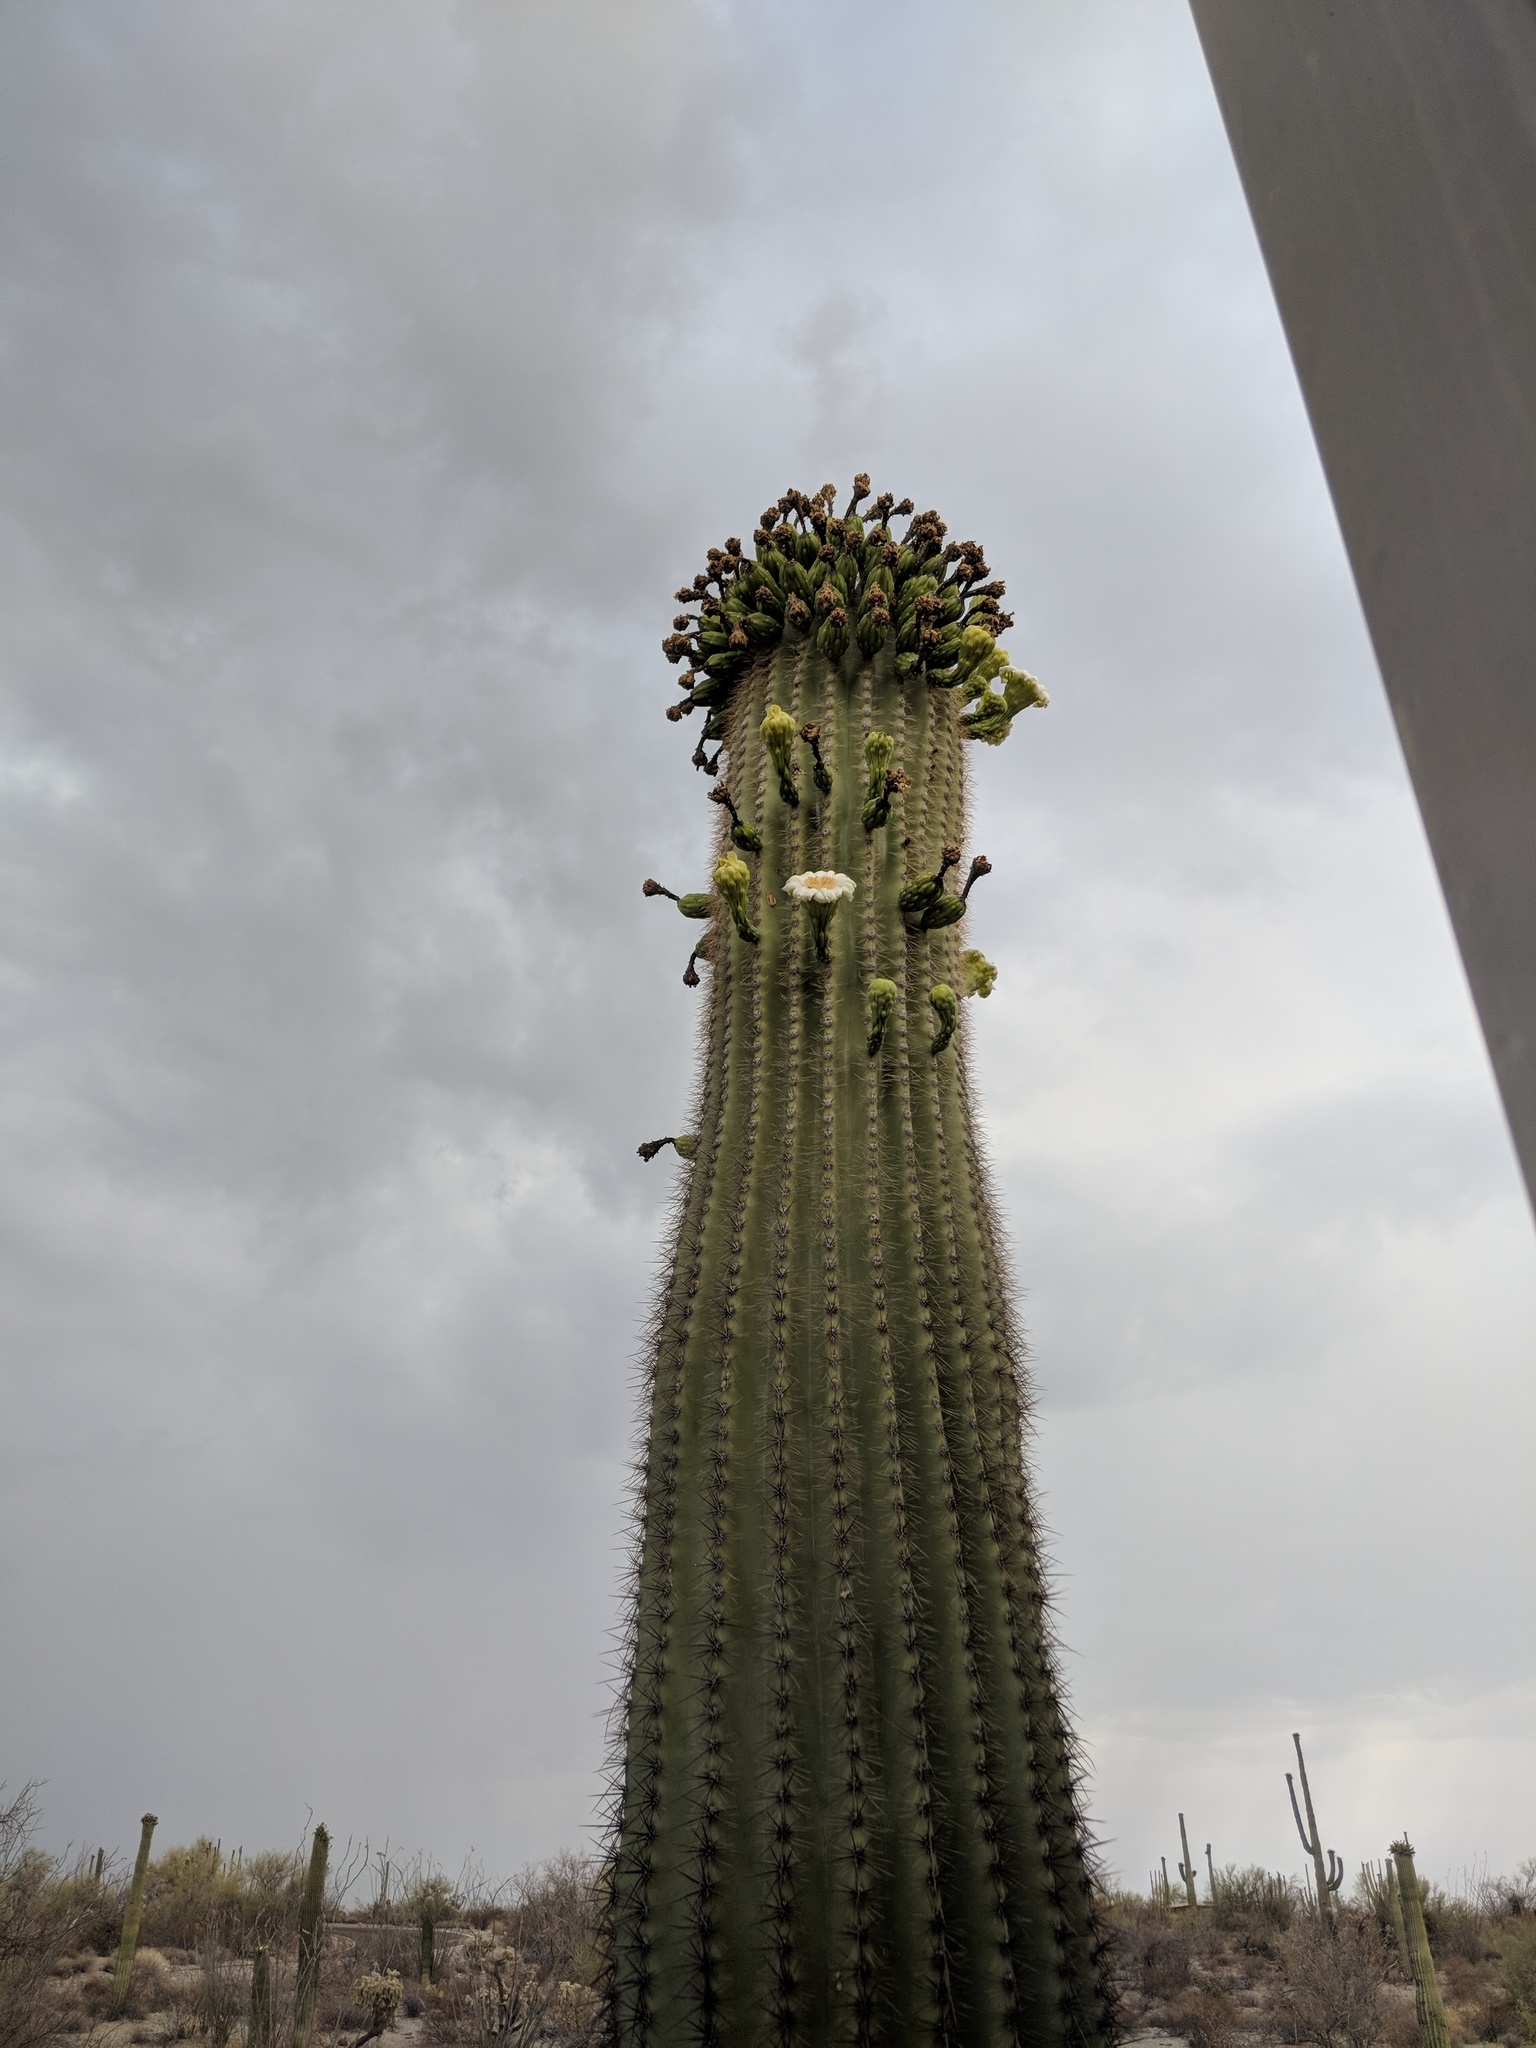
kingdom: Plantae
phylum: Tracheophyta
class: Magnoliopsida
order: Caryophyllales
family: Cactaceae
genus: Carnegiea
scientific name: Carnegiea gigantea
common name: Saguaro
